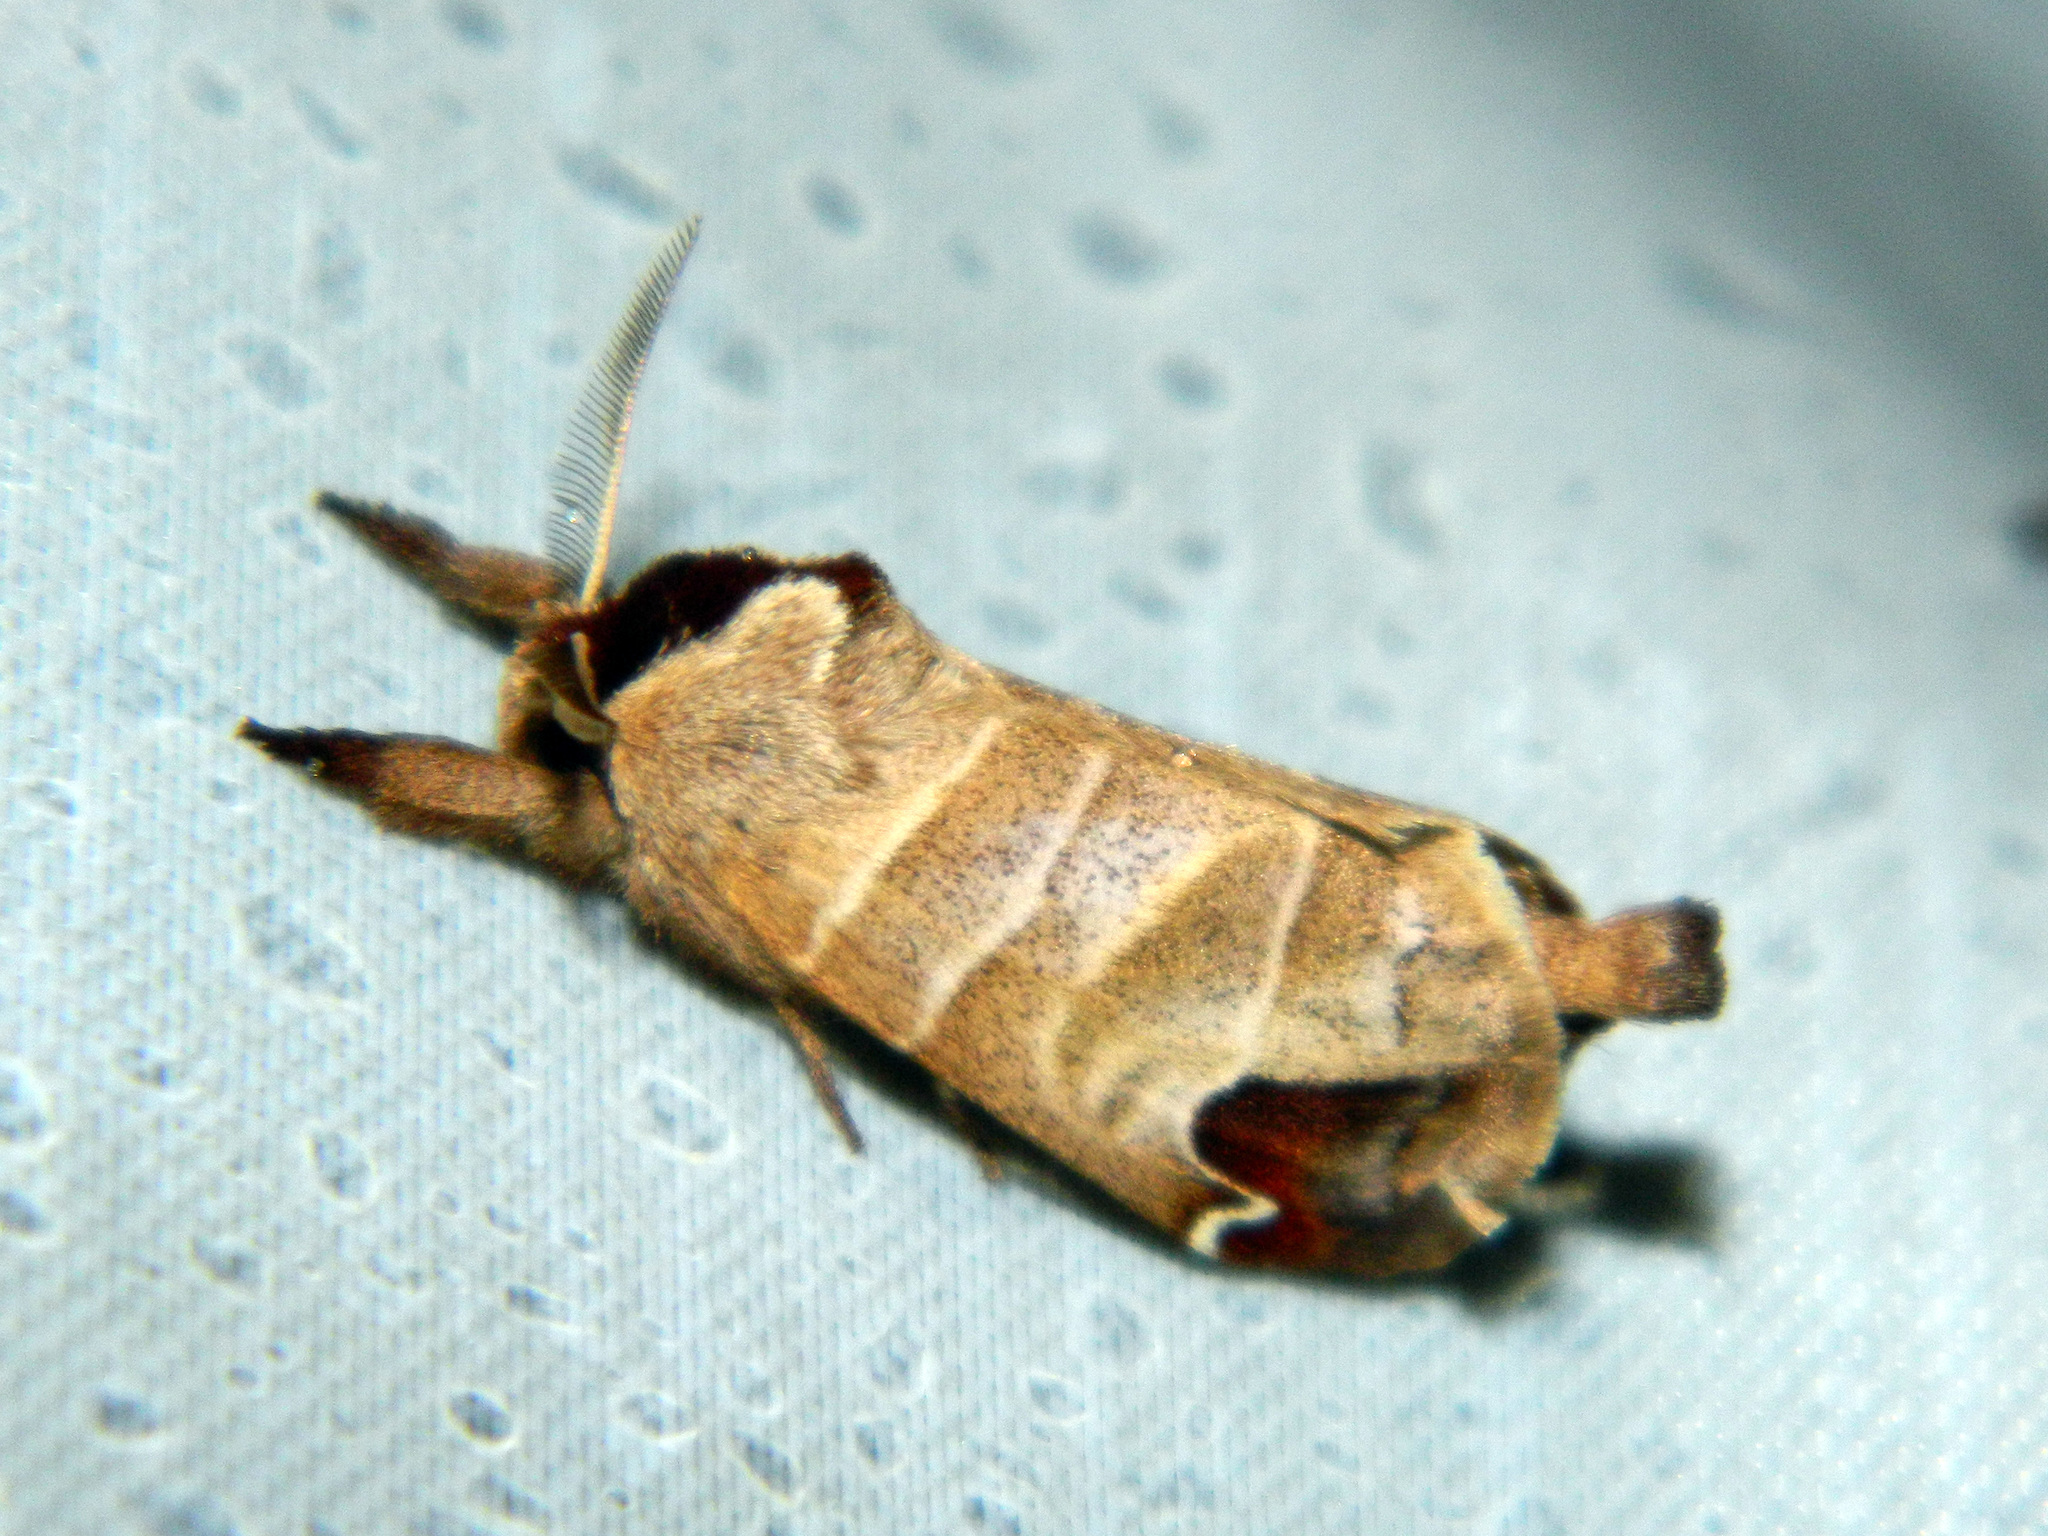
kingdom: Animalia
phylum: Arthropoda
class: Insecta
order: Lepidoptera
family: Notodontidae
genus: Clostera
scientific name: Clostera albosigma
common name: Sigmoid prominent
